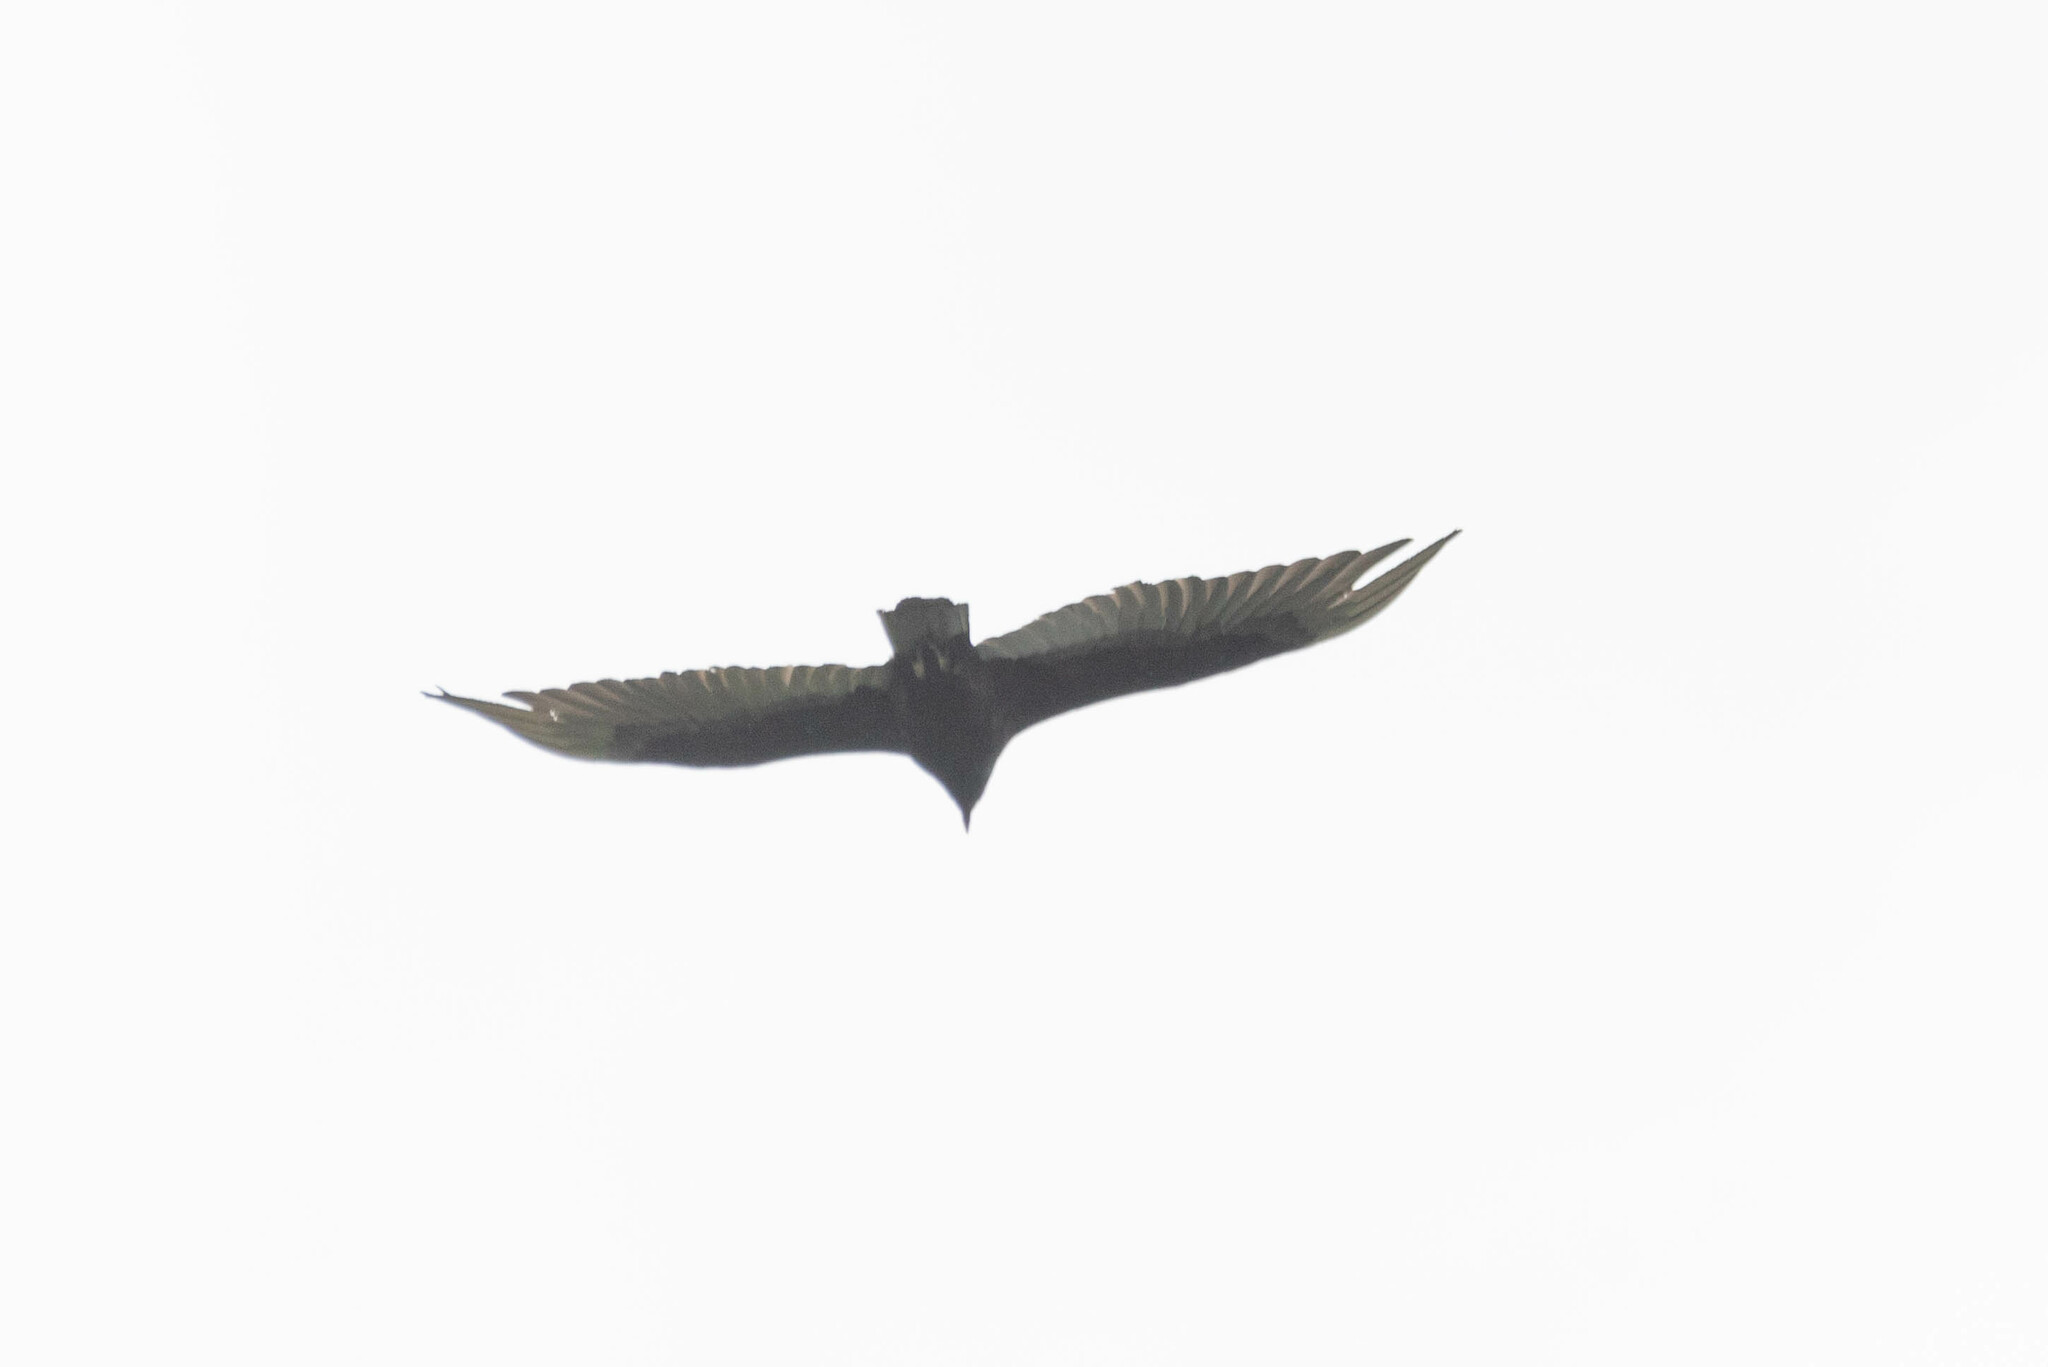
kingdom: Animalia
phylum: Chordata
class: Aves
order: Accipitriformes
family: Cathartidae
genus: Cathartes
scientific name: Cathartes aura
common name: Turkey vulture
